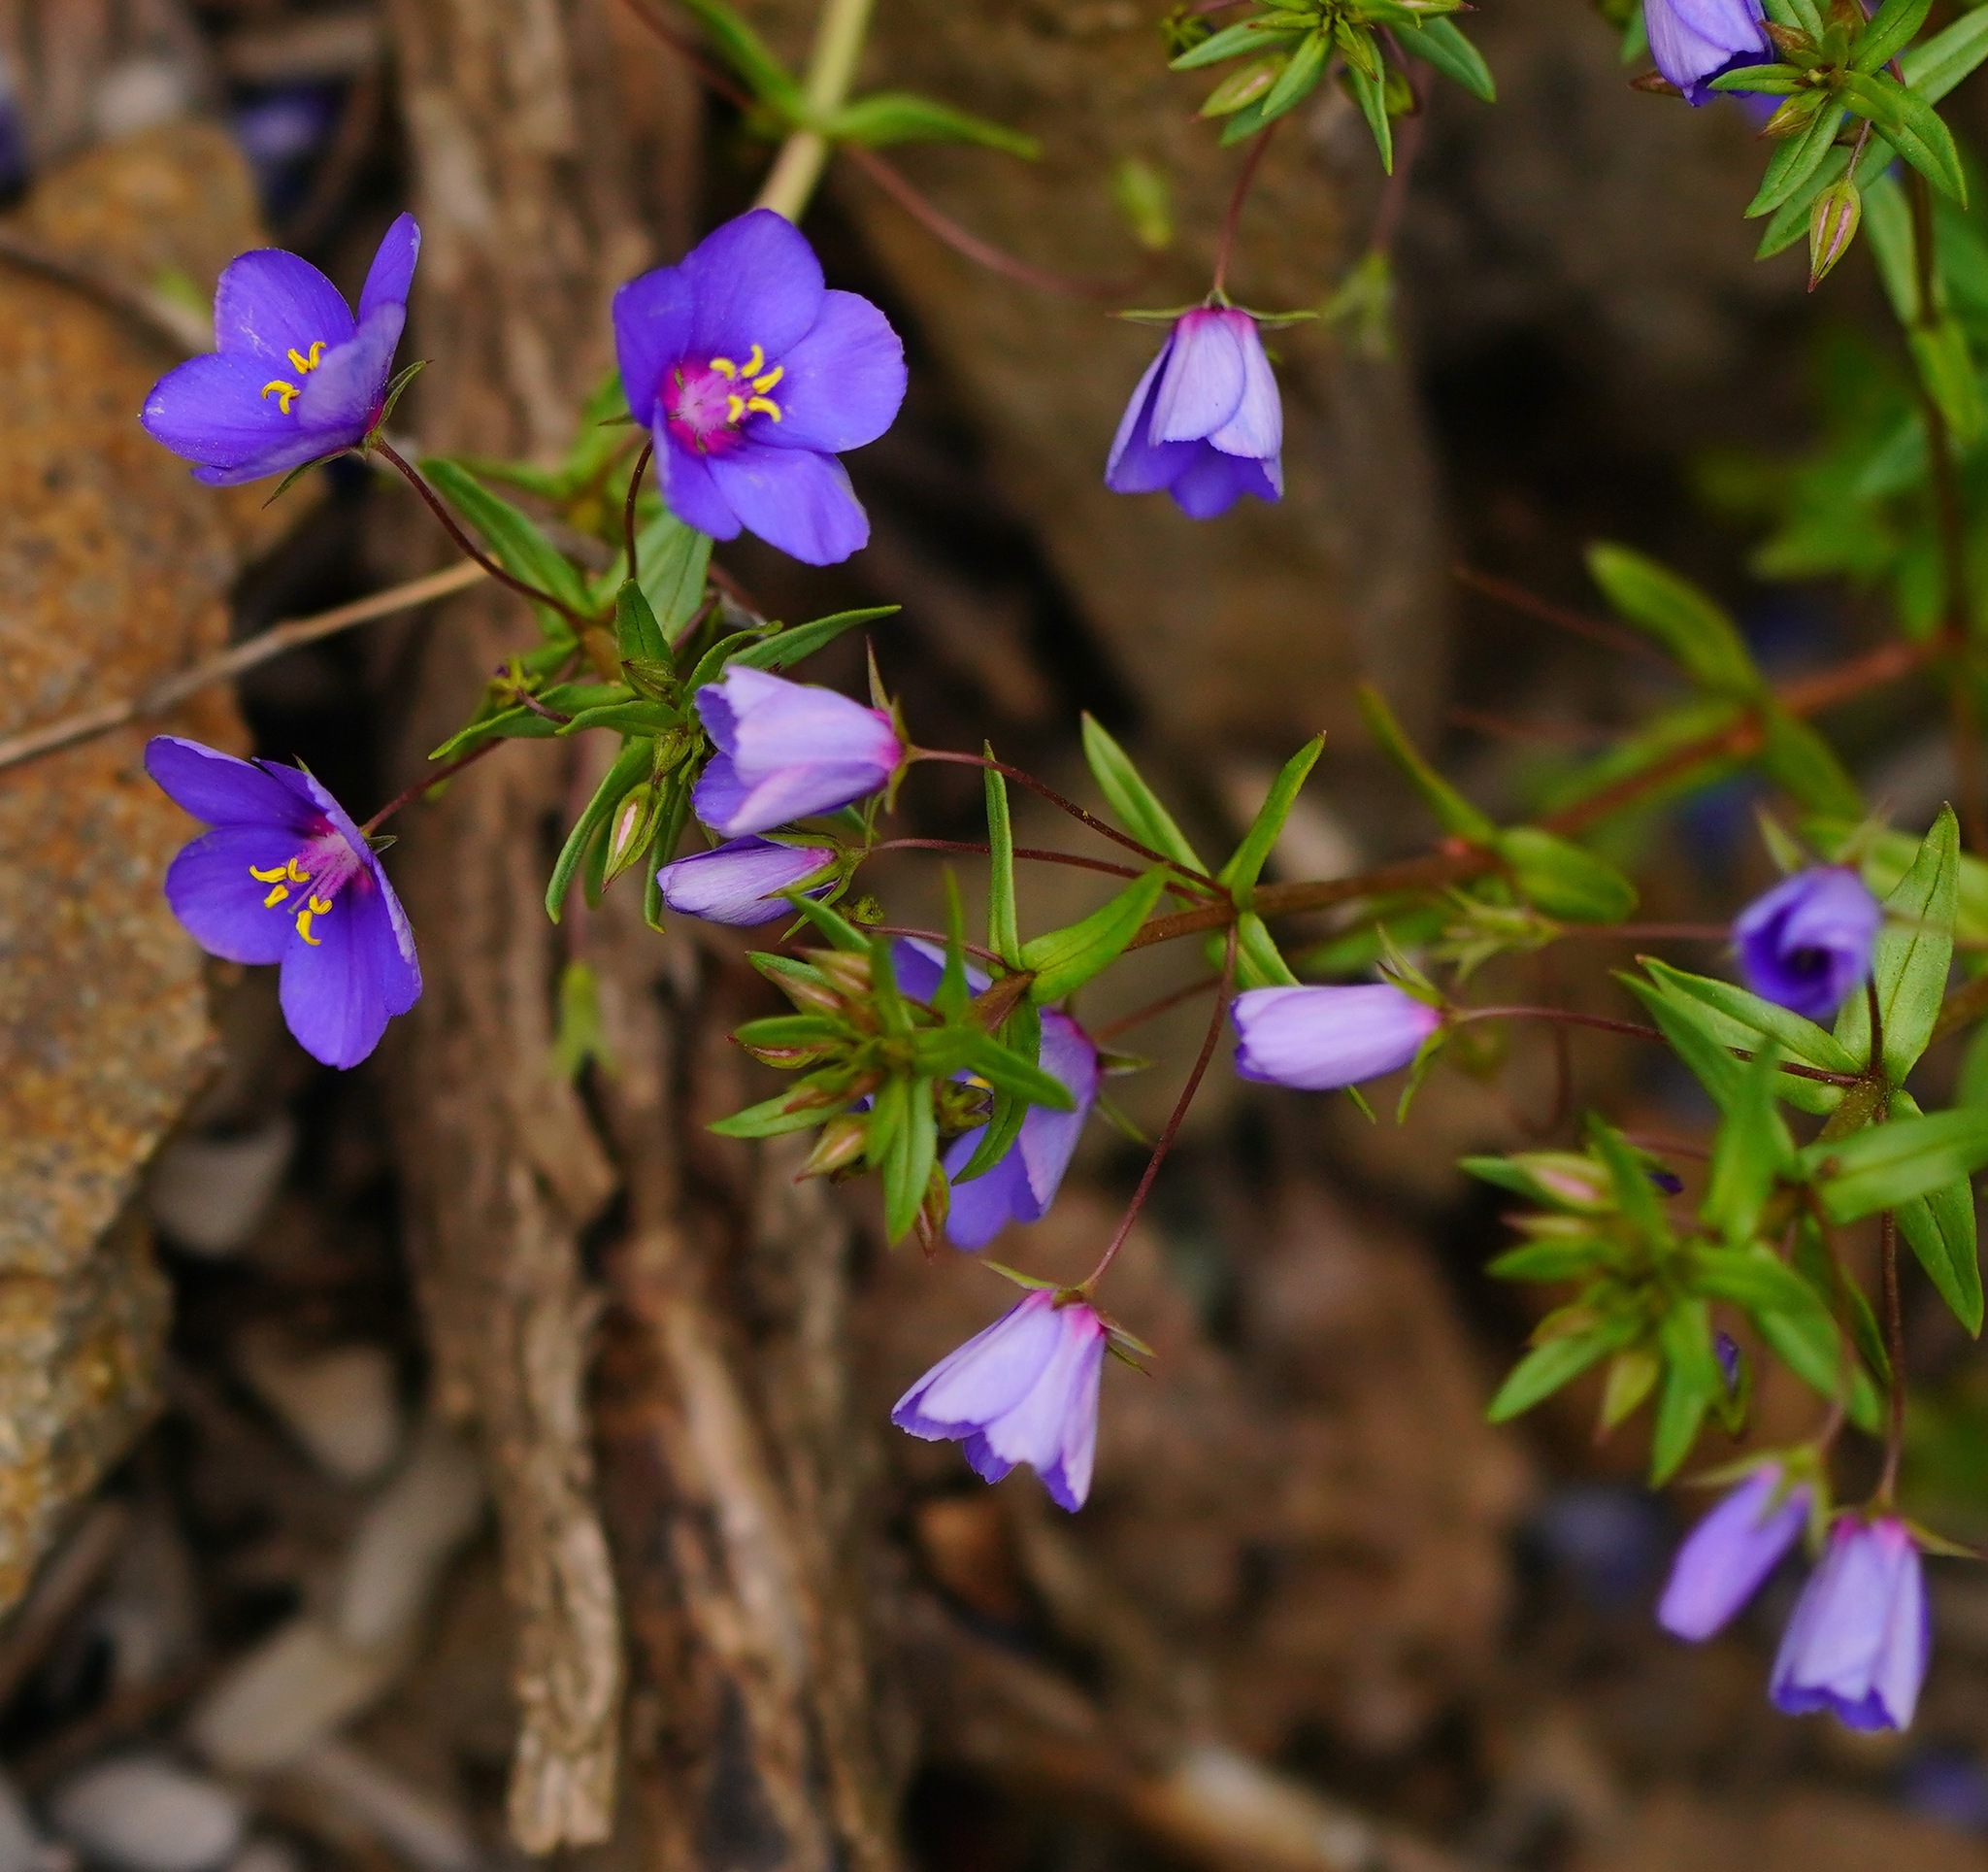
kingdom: Plantae
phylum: Tracheophyta
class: Magnoliopsida
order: Ericales
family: Primulaceae
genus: Lysimachia
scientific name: Lysimachia monelli
